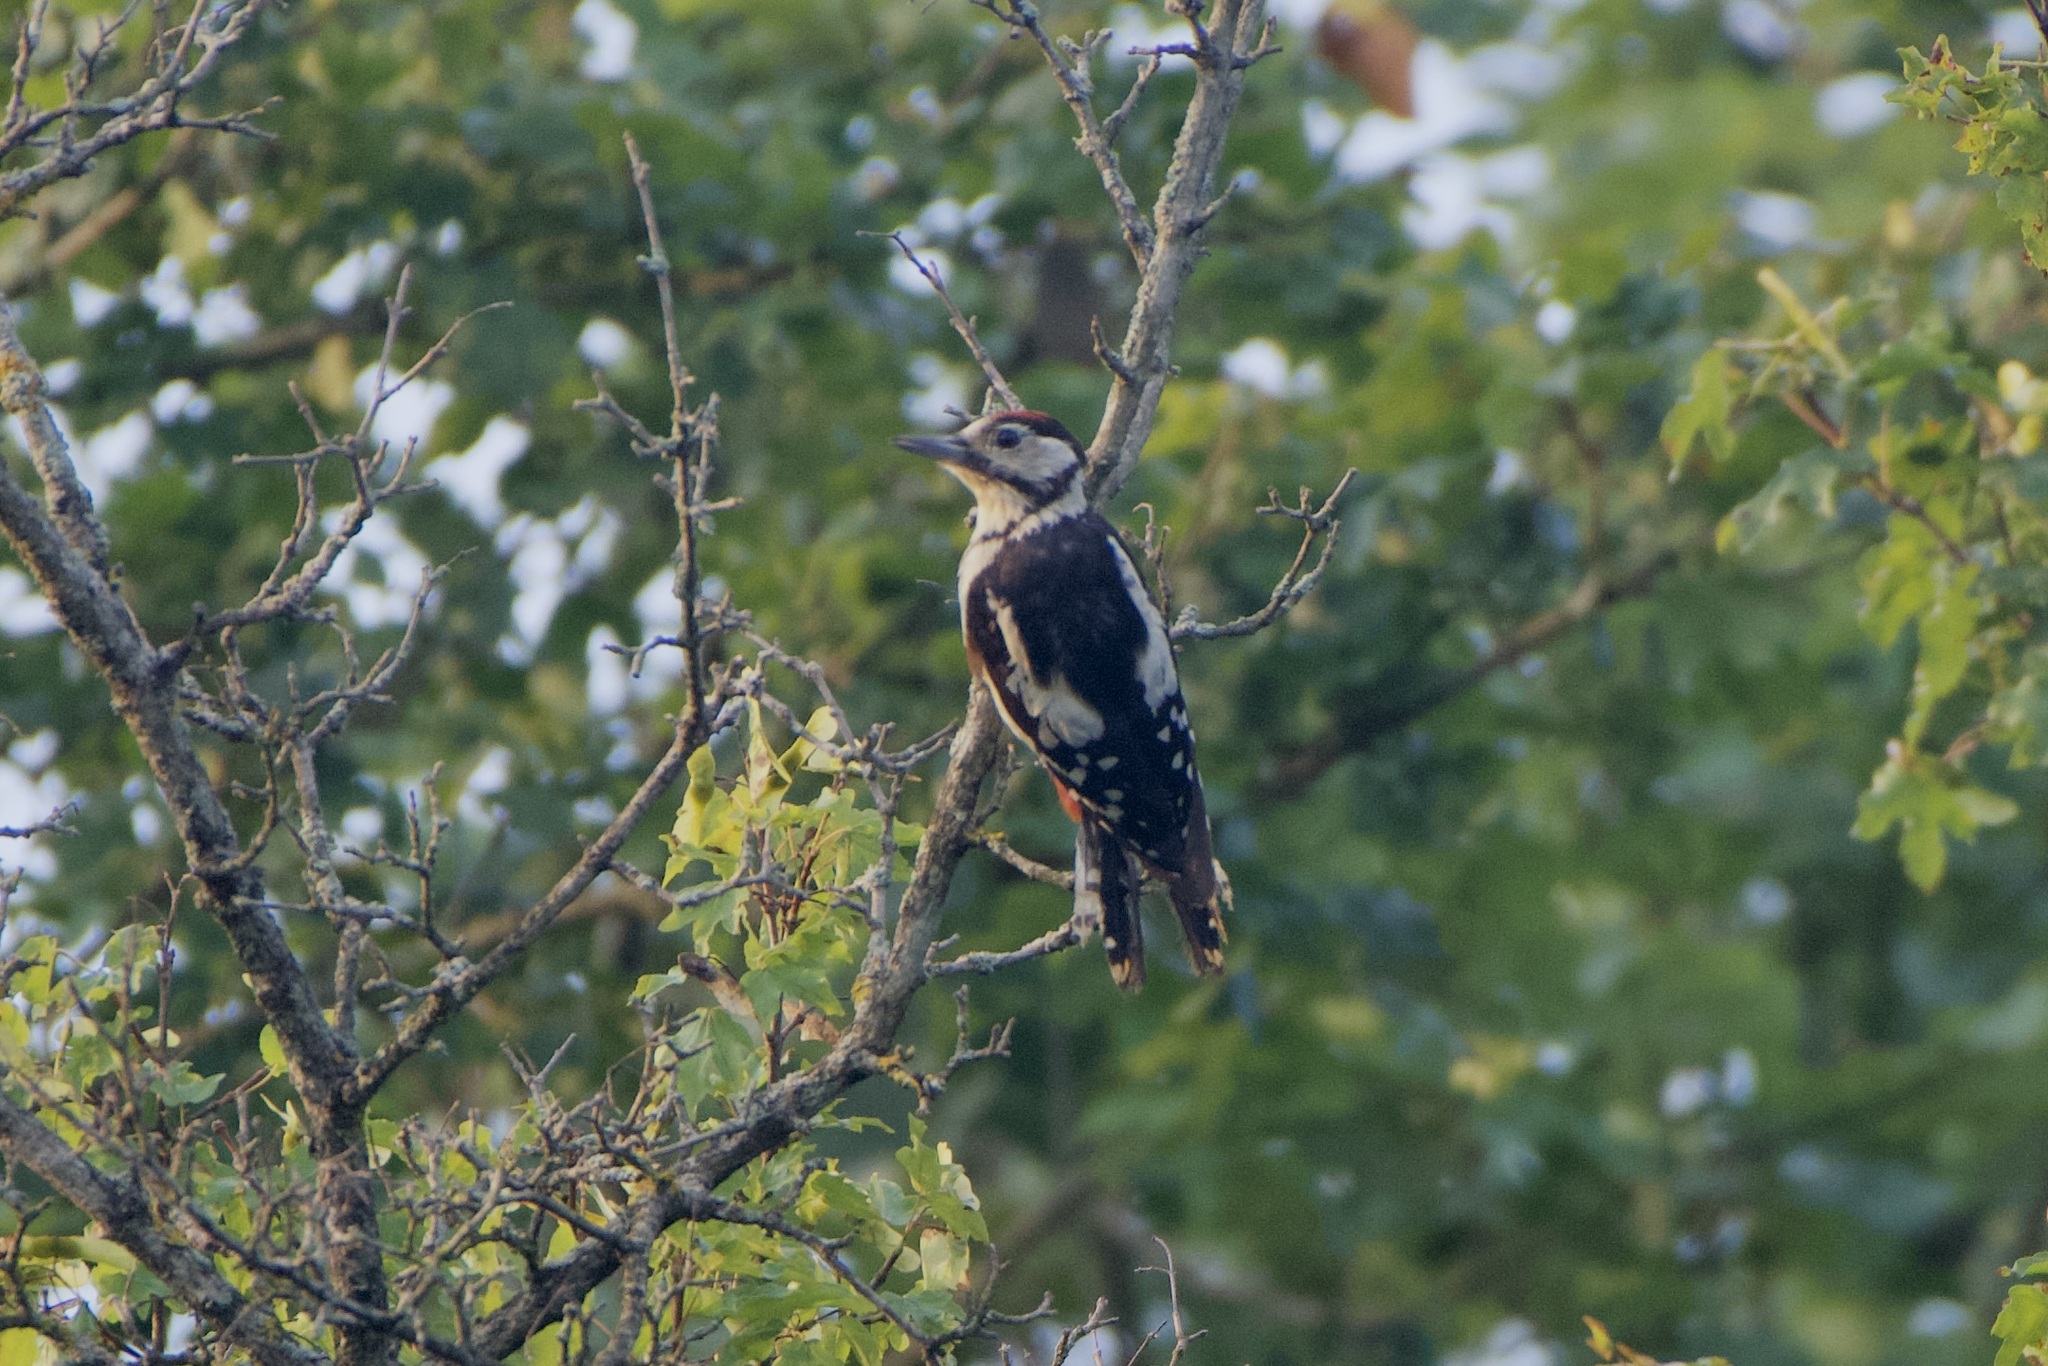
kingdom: Animalia
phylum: Chordata
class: Aves
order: Piciformes
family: Picidae
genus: Dendrocopos
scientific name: Dendrocopos major
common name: Great spotted woodpecker
